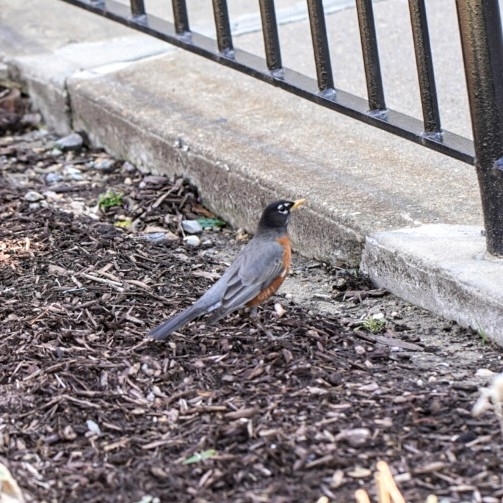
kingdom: Animalia
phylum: Chordata
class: Aves
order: Passeriformes
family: Turdidae
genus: Turdus
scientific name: Turdus migratorius
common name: American robin
